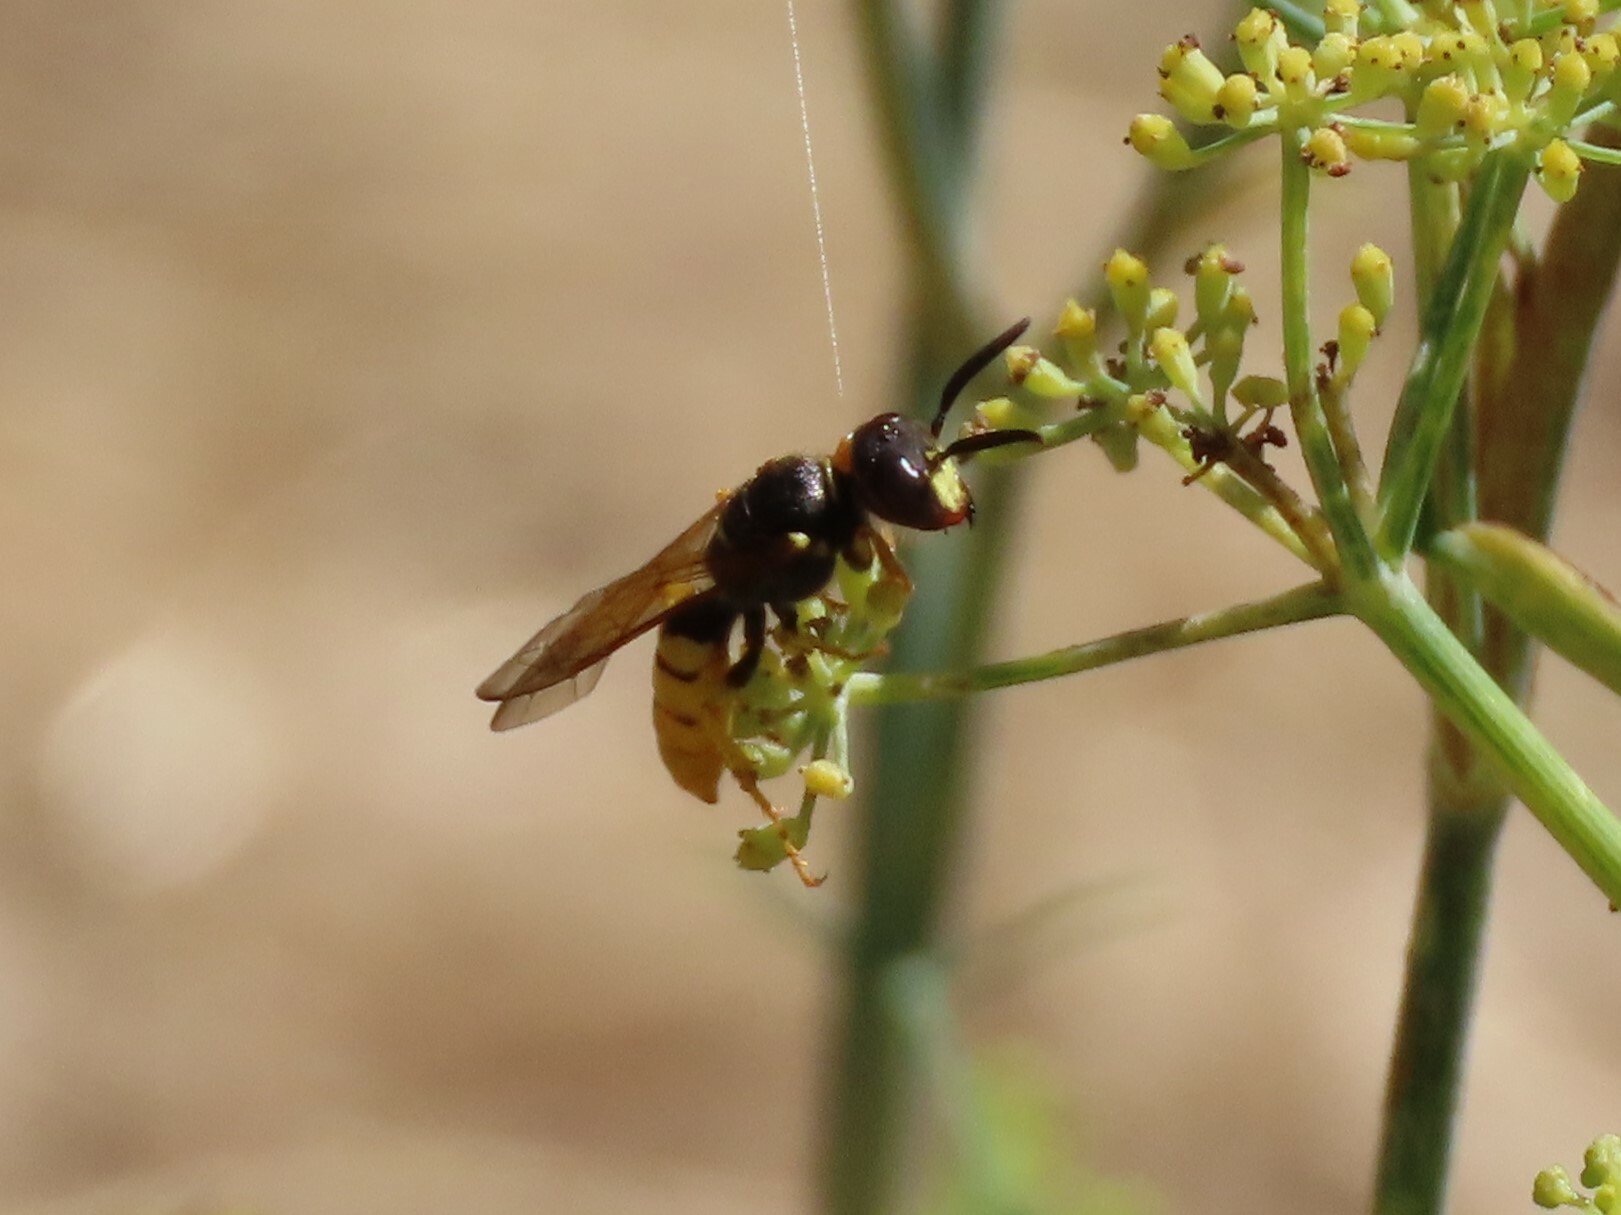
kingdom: Animalia
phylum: Arthropoda
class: Insecta
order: Hymenoptera
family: Crabronidae
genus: Philanthus
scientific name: Philanthus triangulum
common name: Bee wolf
